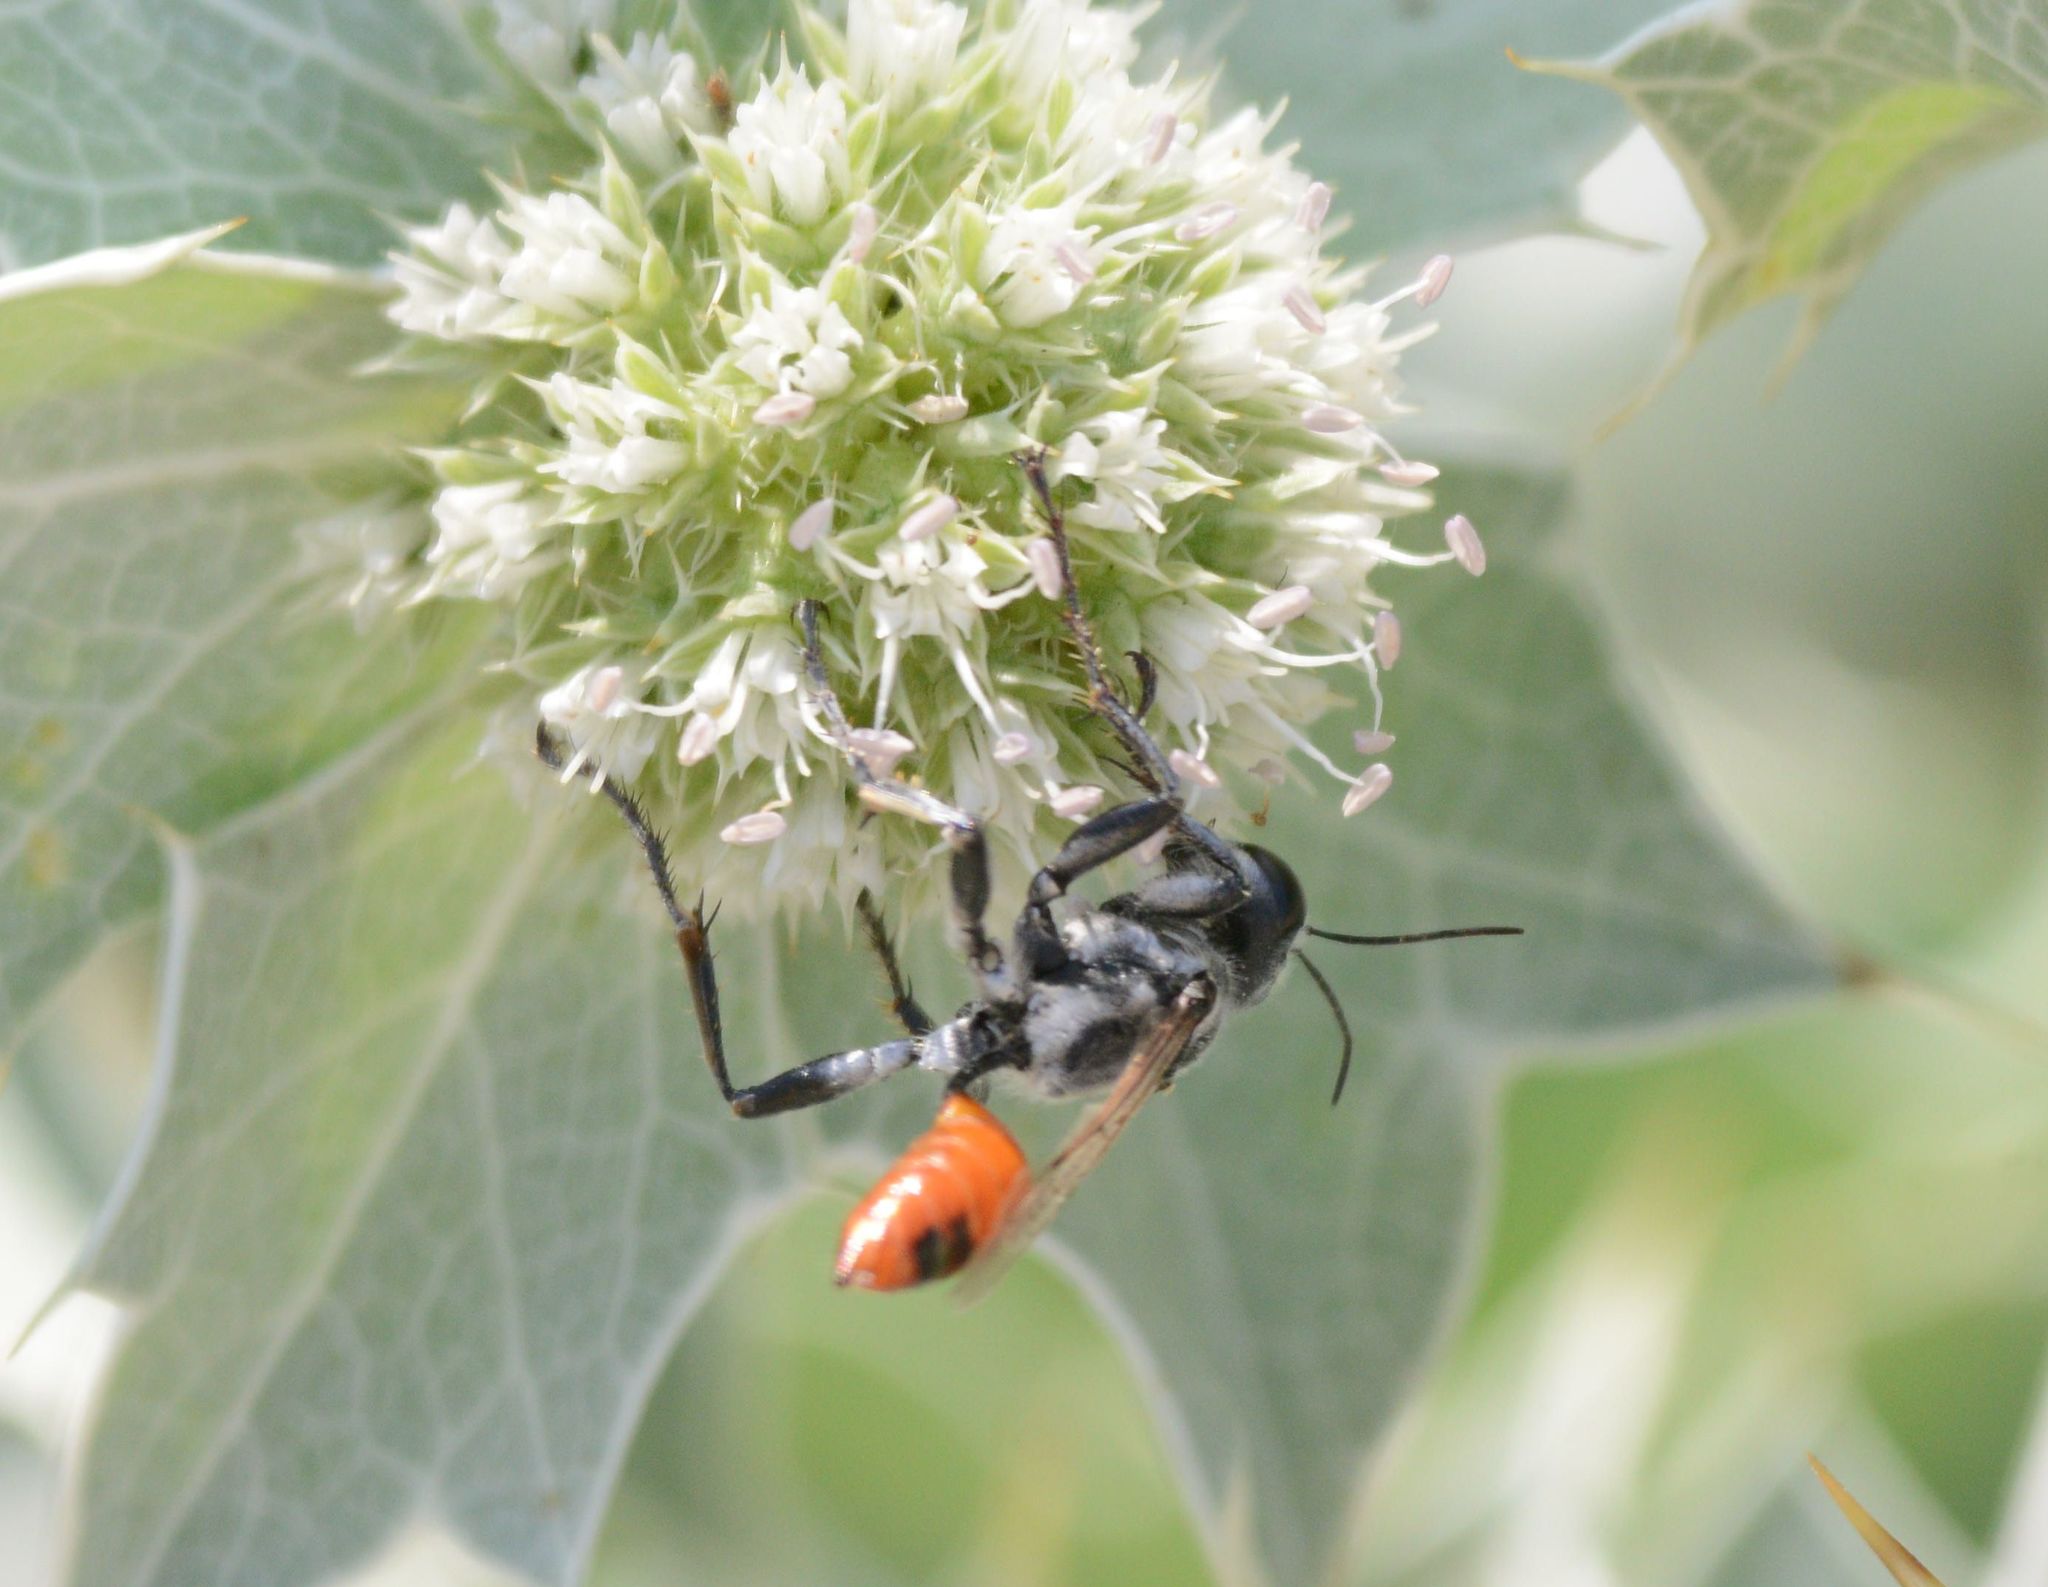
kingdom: Animalia
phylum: Arthropoda
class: Insecta
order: Hymenoptera
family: Sphecidae
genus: Prionyx
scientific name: Prionyx viduatus
